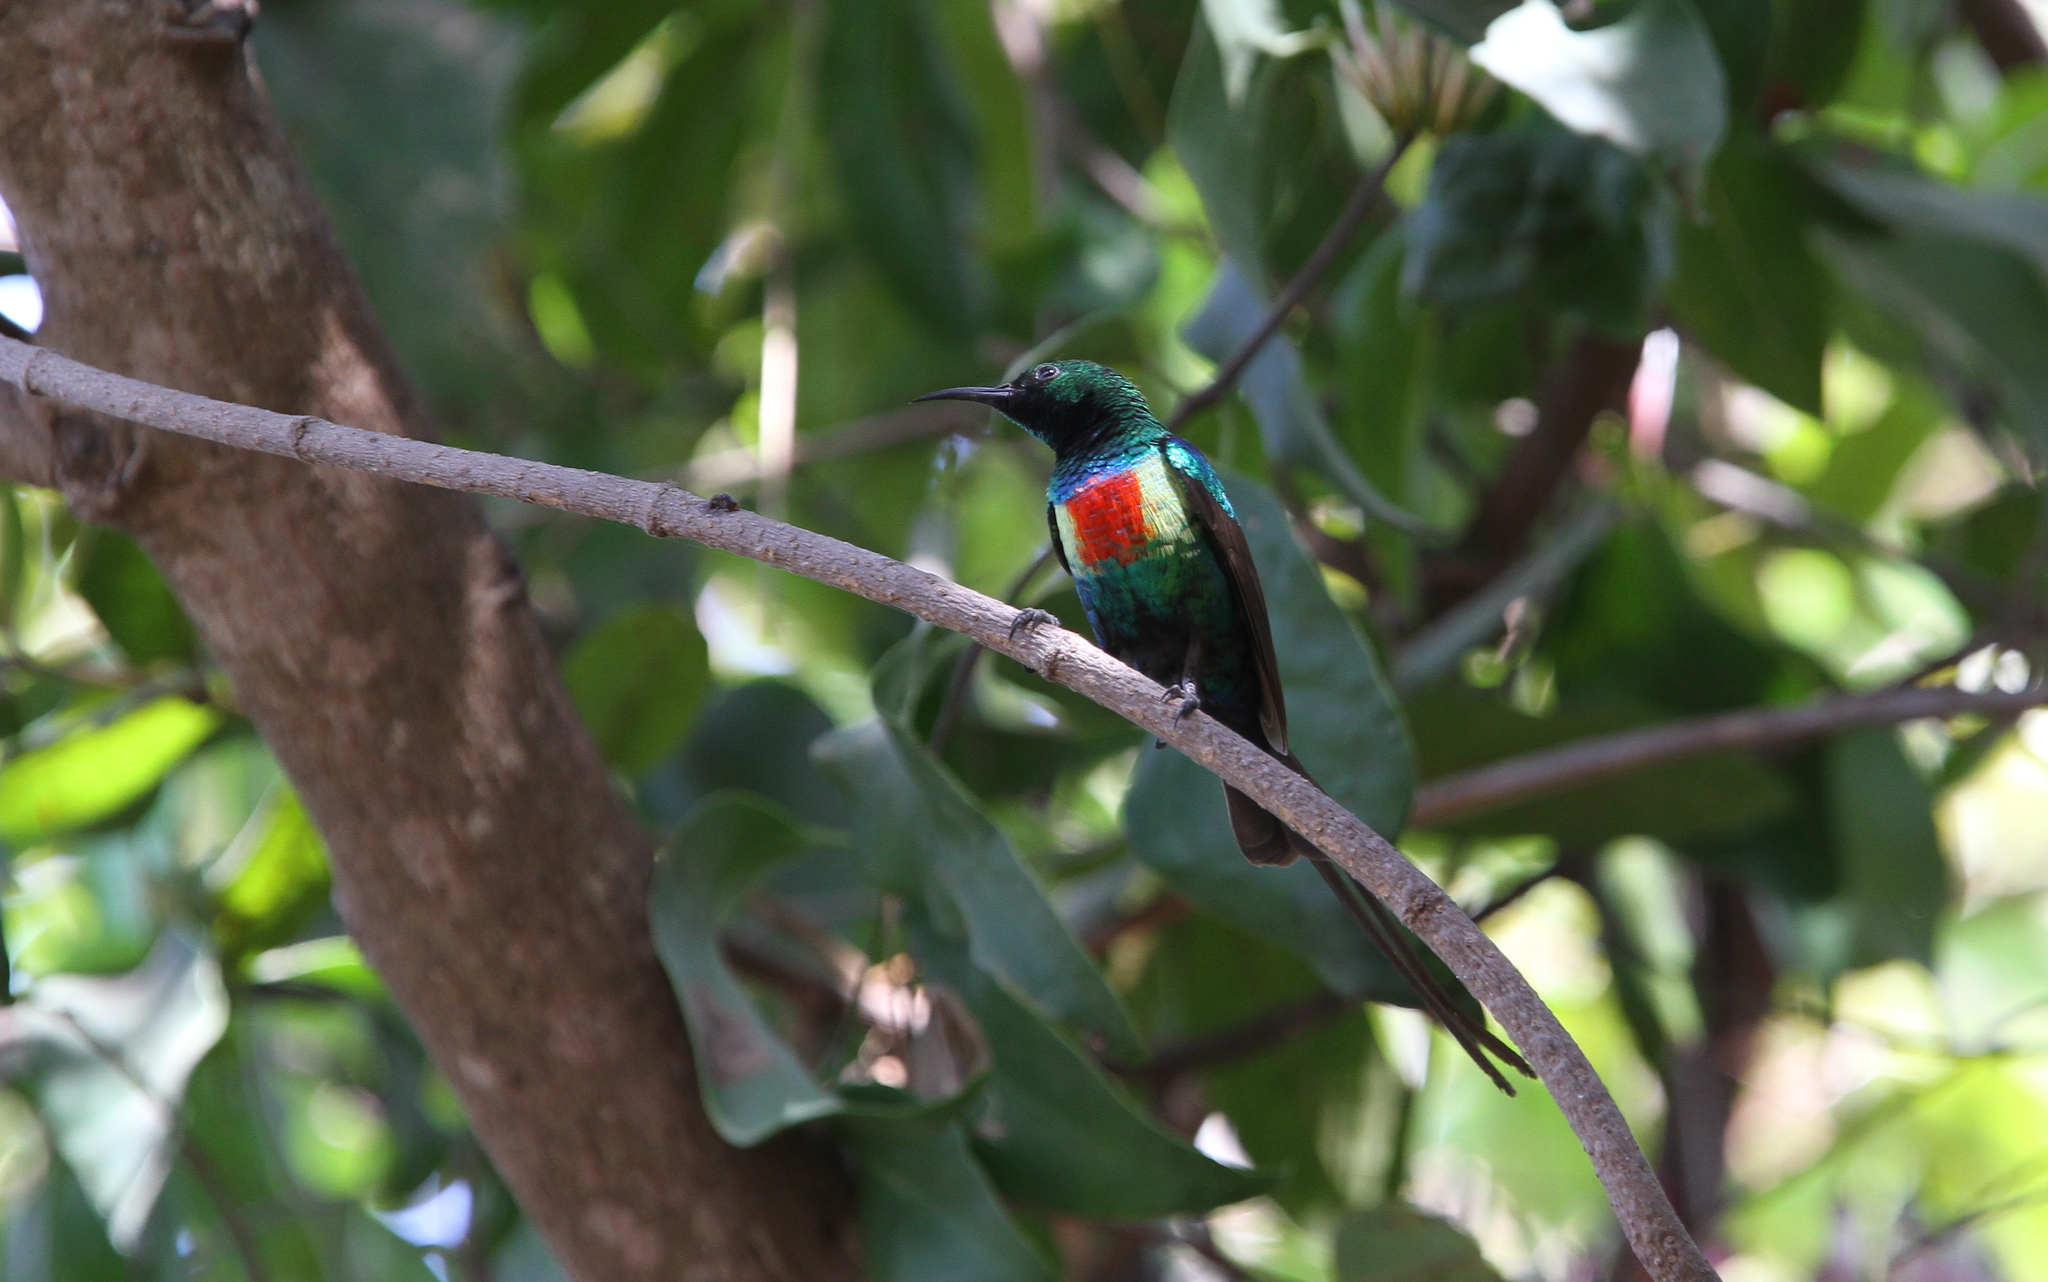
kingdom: Animalia
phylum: Chordata
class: Aves
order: Passeriformes
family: Nectariniidae
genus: Cinnyris
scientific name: Cinnyris pulchellus
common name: Beautiful sunbird
